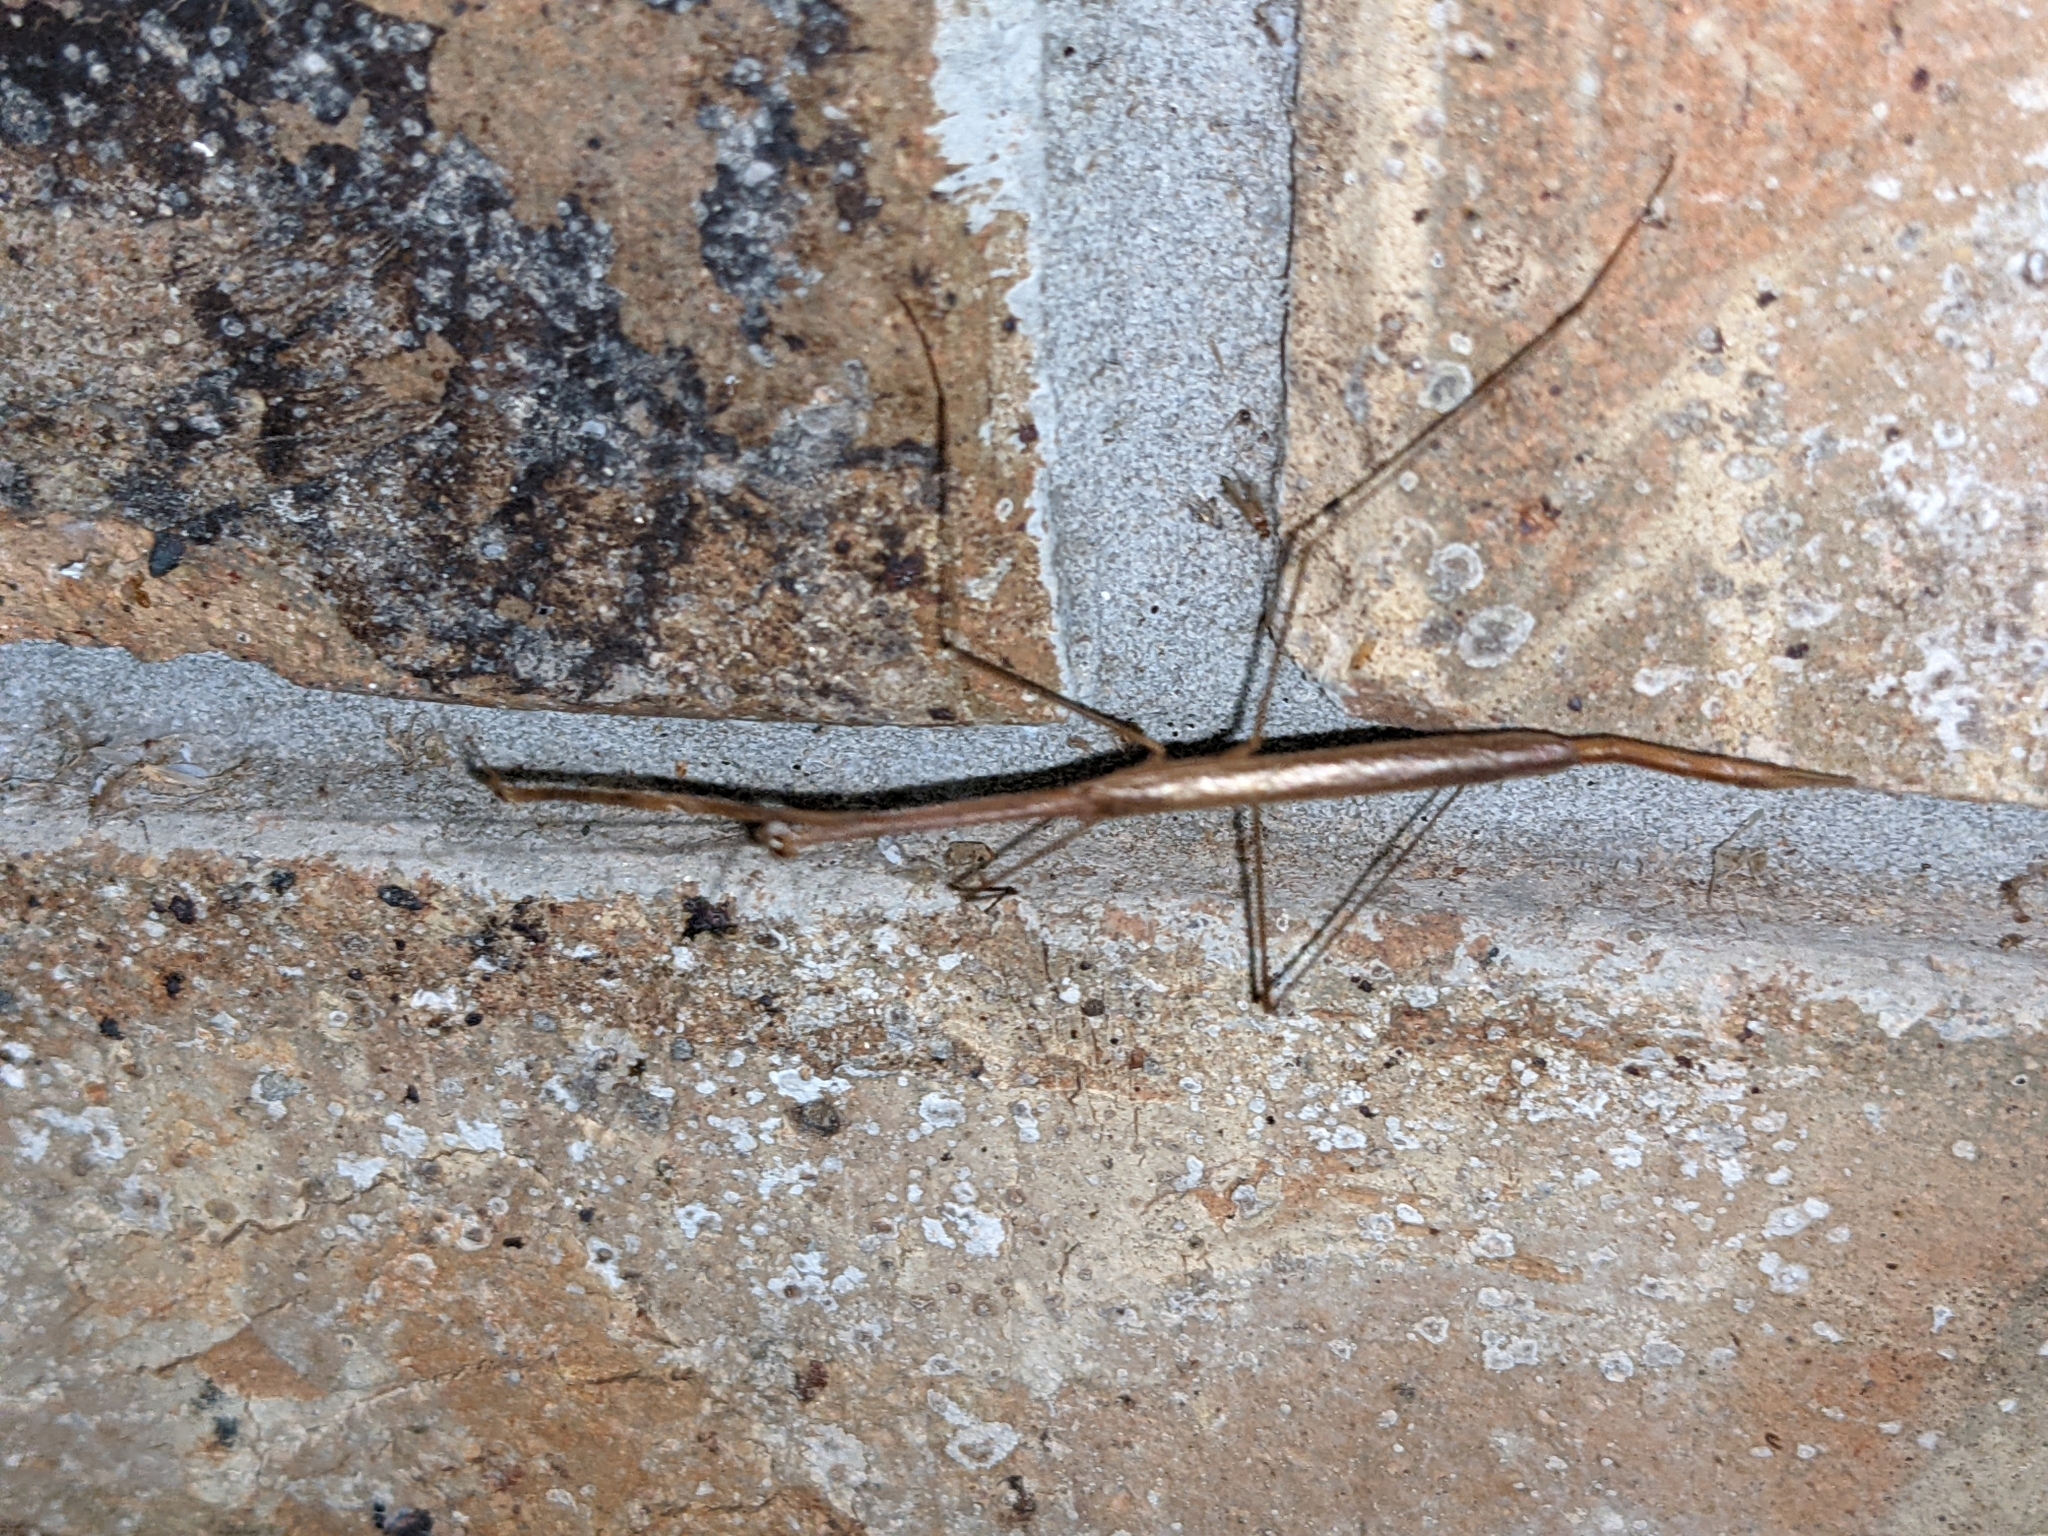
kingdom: Animalia
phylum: Arthropoda
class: Insecta
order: Mantodea
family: Thespidae
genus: Thesprotia
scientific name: Thesprotia graminis
